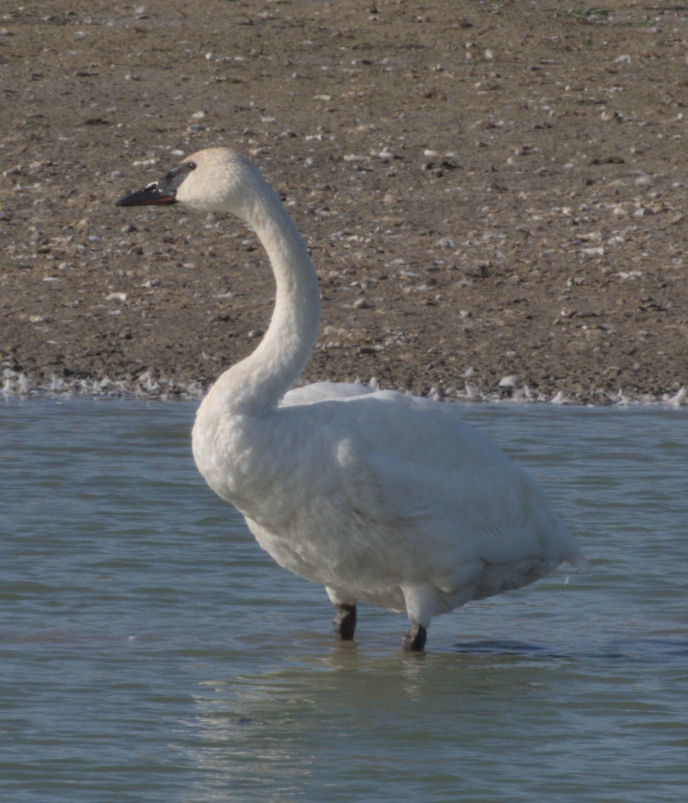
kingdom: Animalia
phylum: Chordata
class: Aves
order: Anseriformes
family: Anatidae
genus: Cygnus
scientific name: Cygnus buccinator
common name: Trumpeter swan
